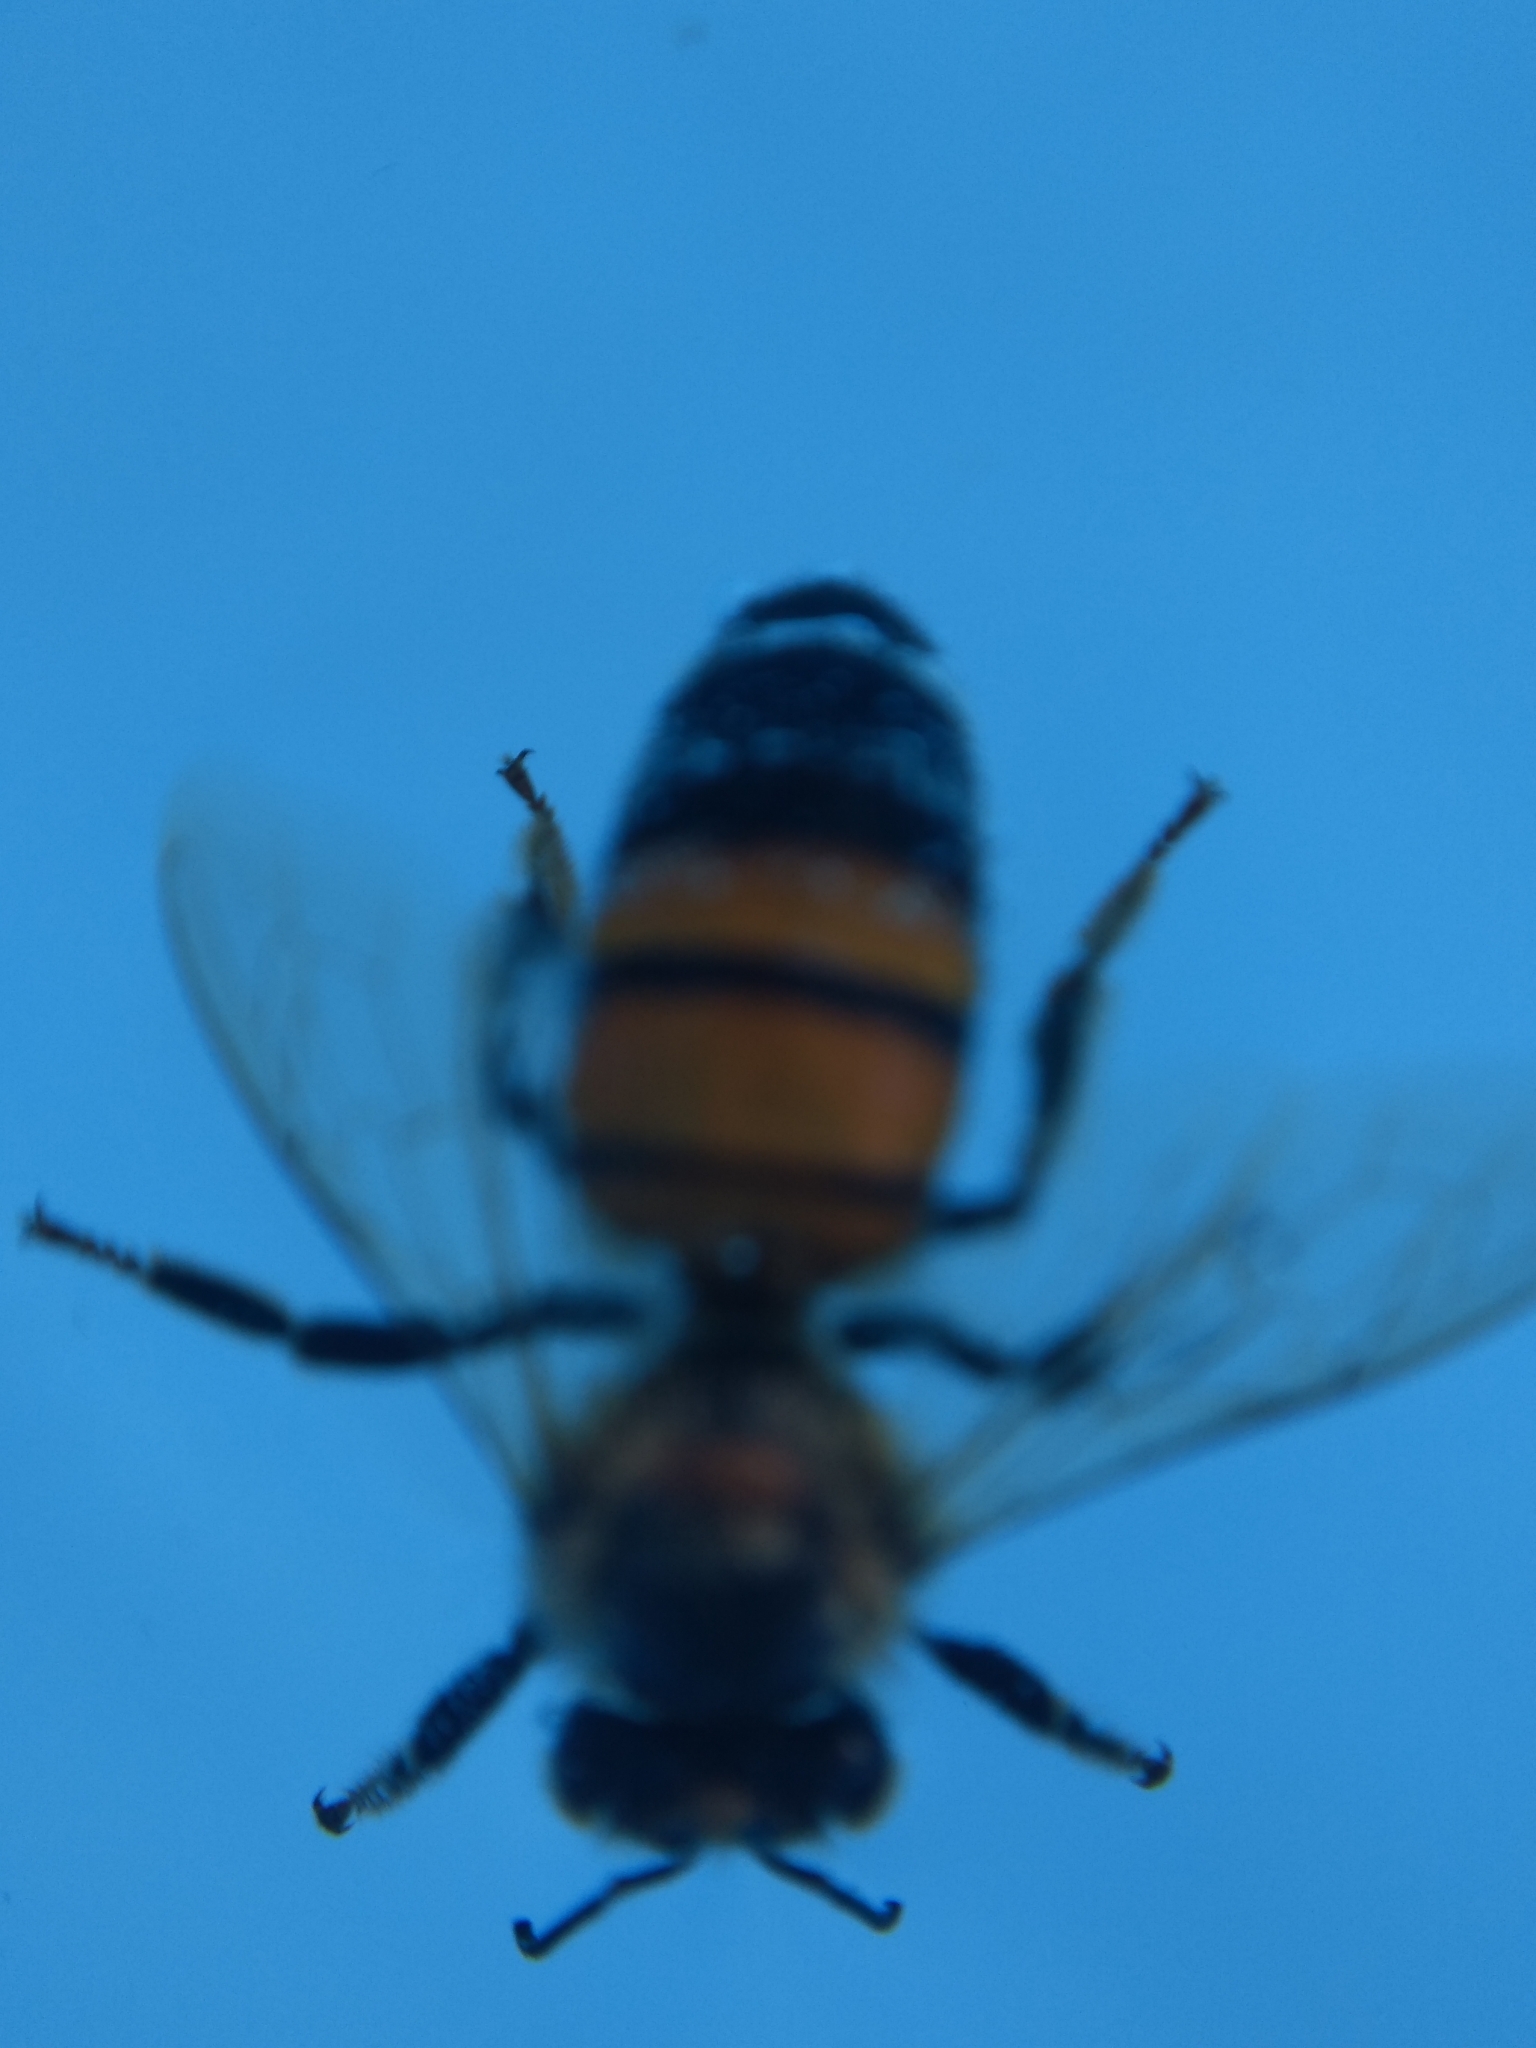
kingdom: Animalia
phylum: Arthropoda
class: Insecta
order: Hymenoptera
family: Apidae
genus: Apis
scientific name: Apis mellifera
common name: Honey bee
